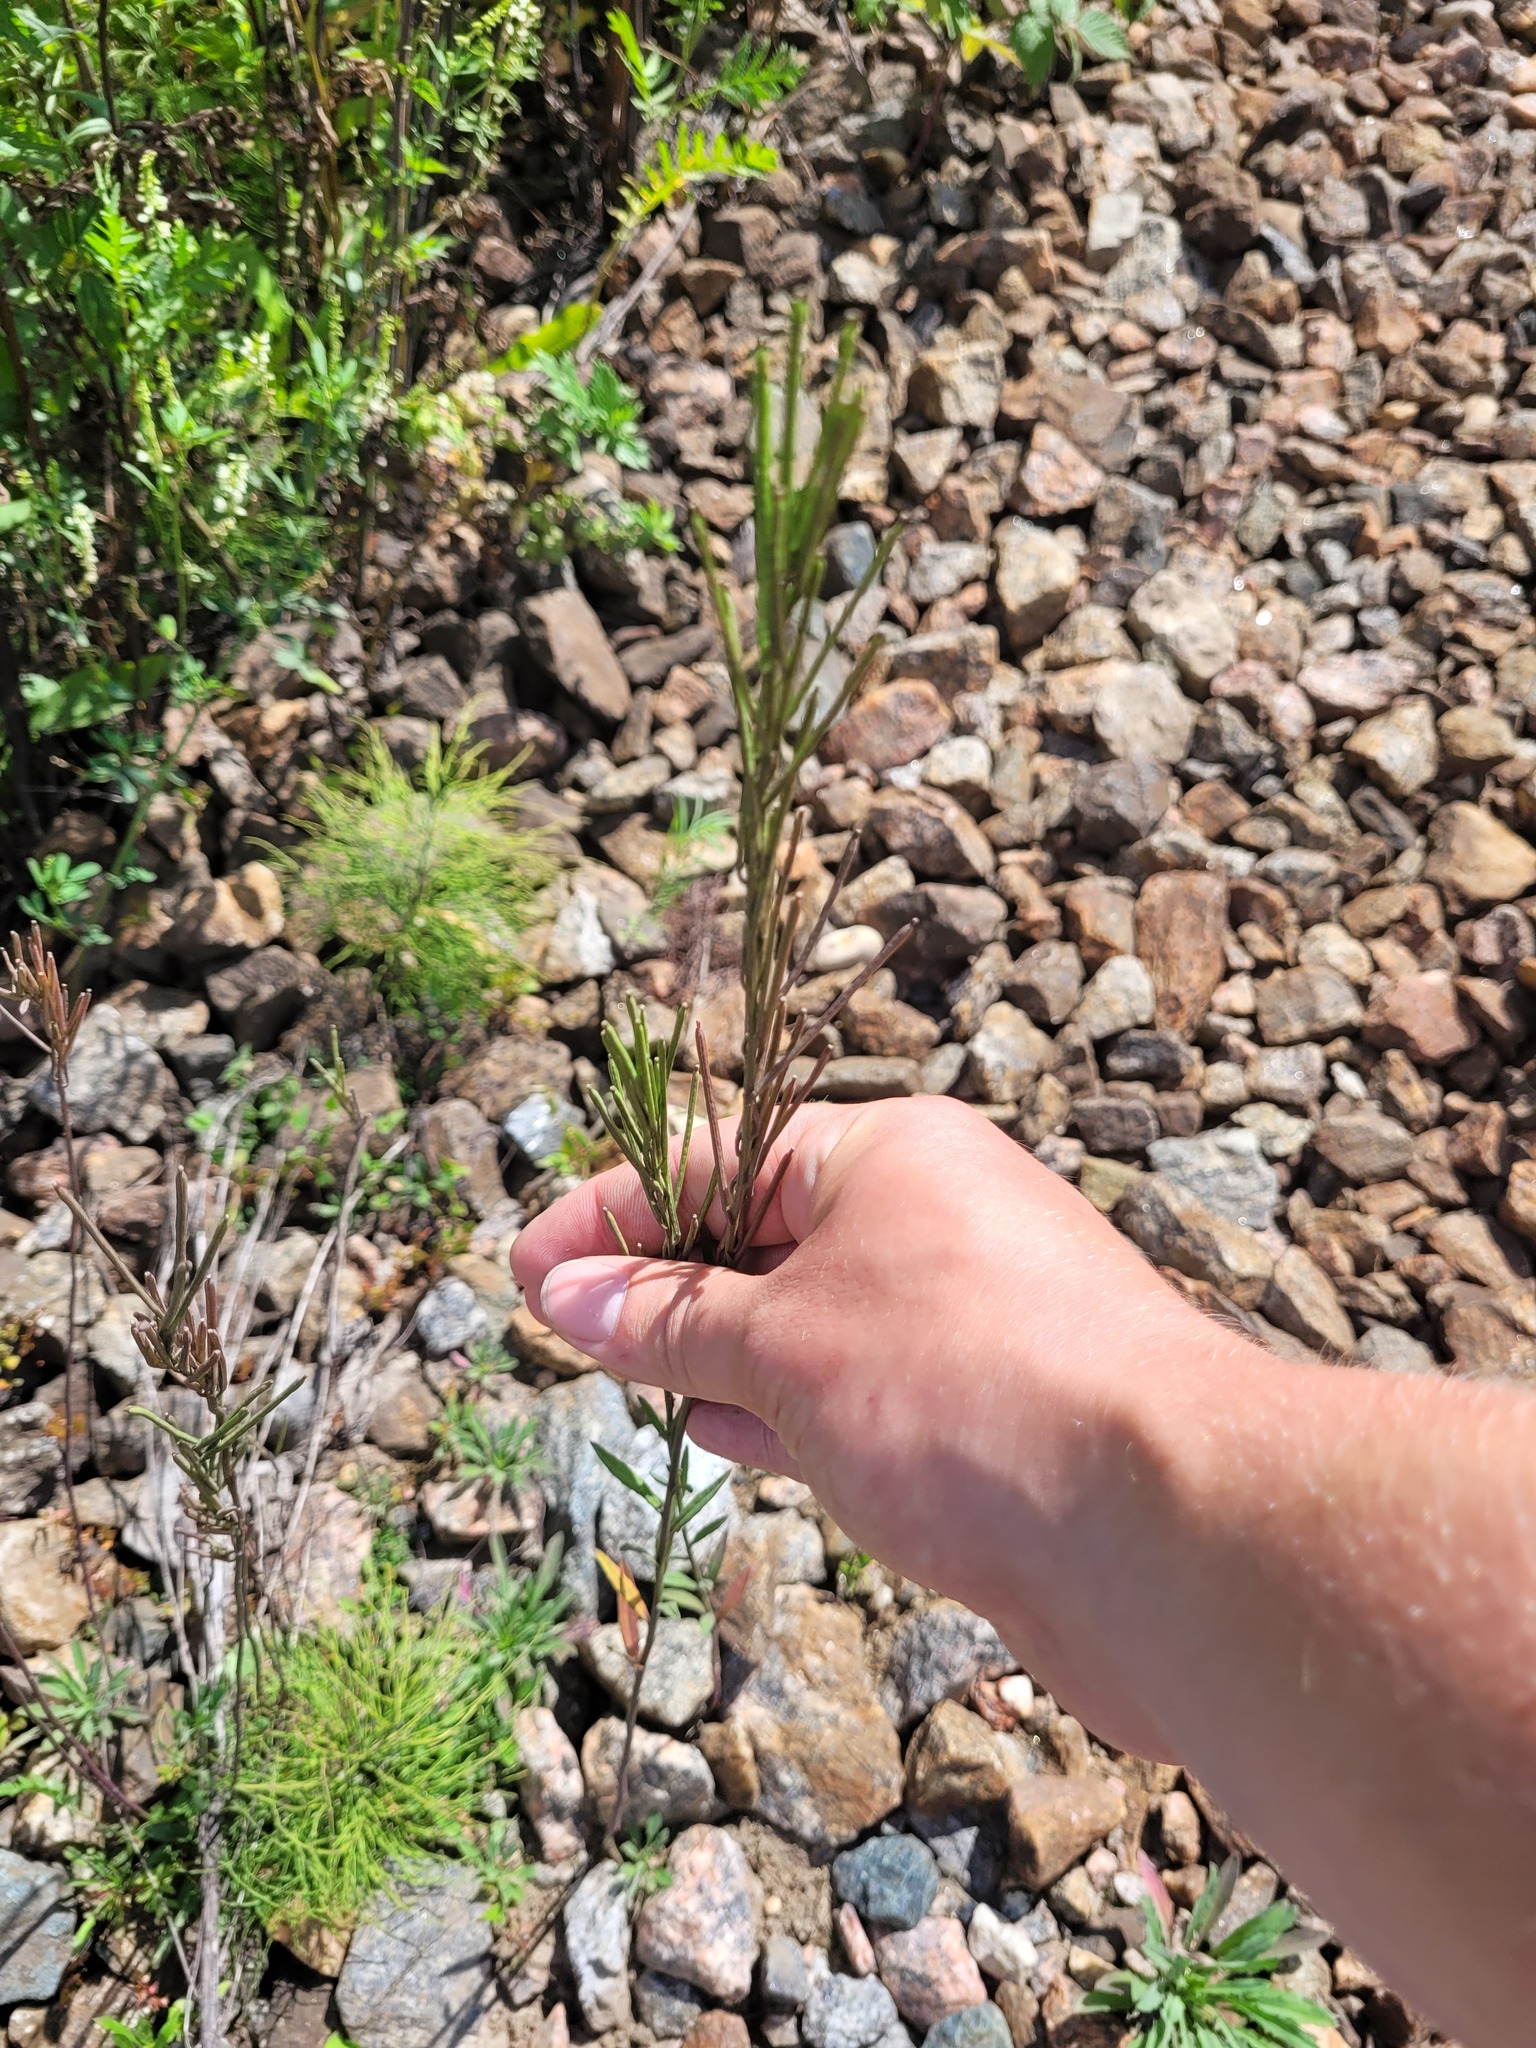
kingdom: Plantae
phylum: Tracheophyta
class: Magnoliopsida
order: Brassicales
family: Brassicaceae
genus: Erysimum
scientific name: Erysimum hieraciifolium
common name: European wallflower
